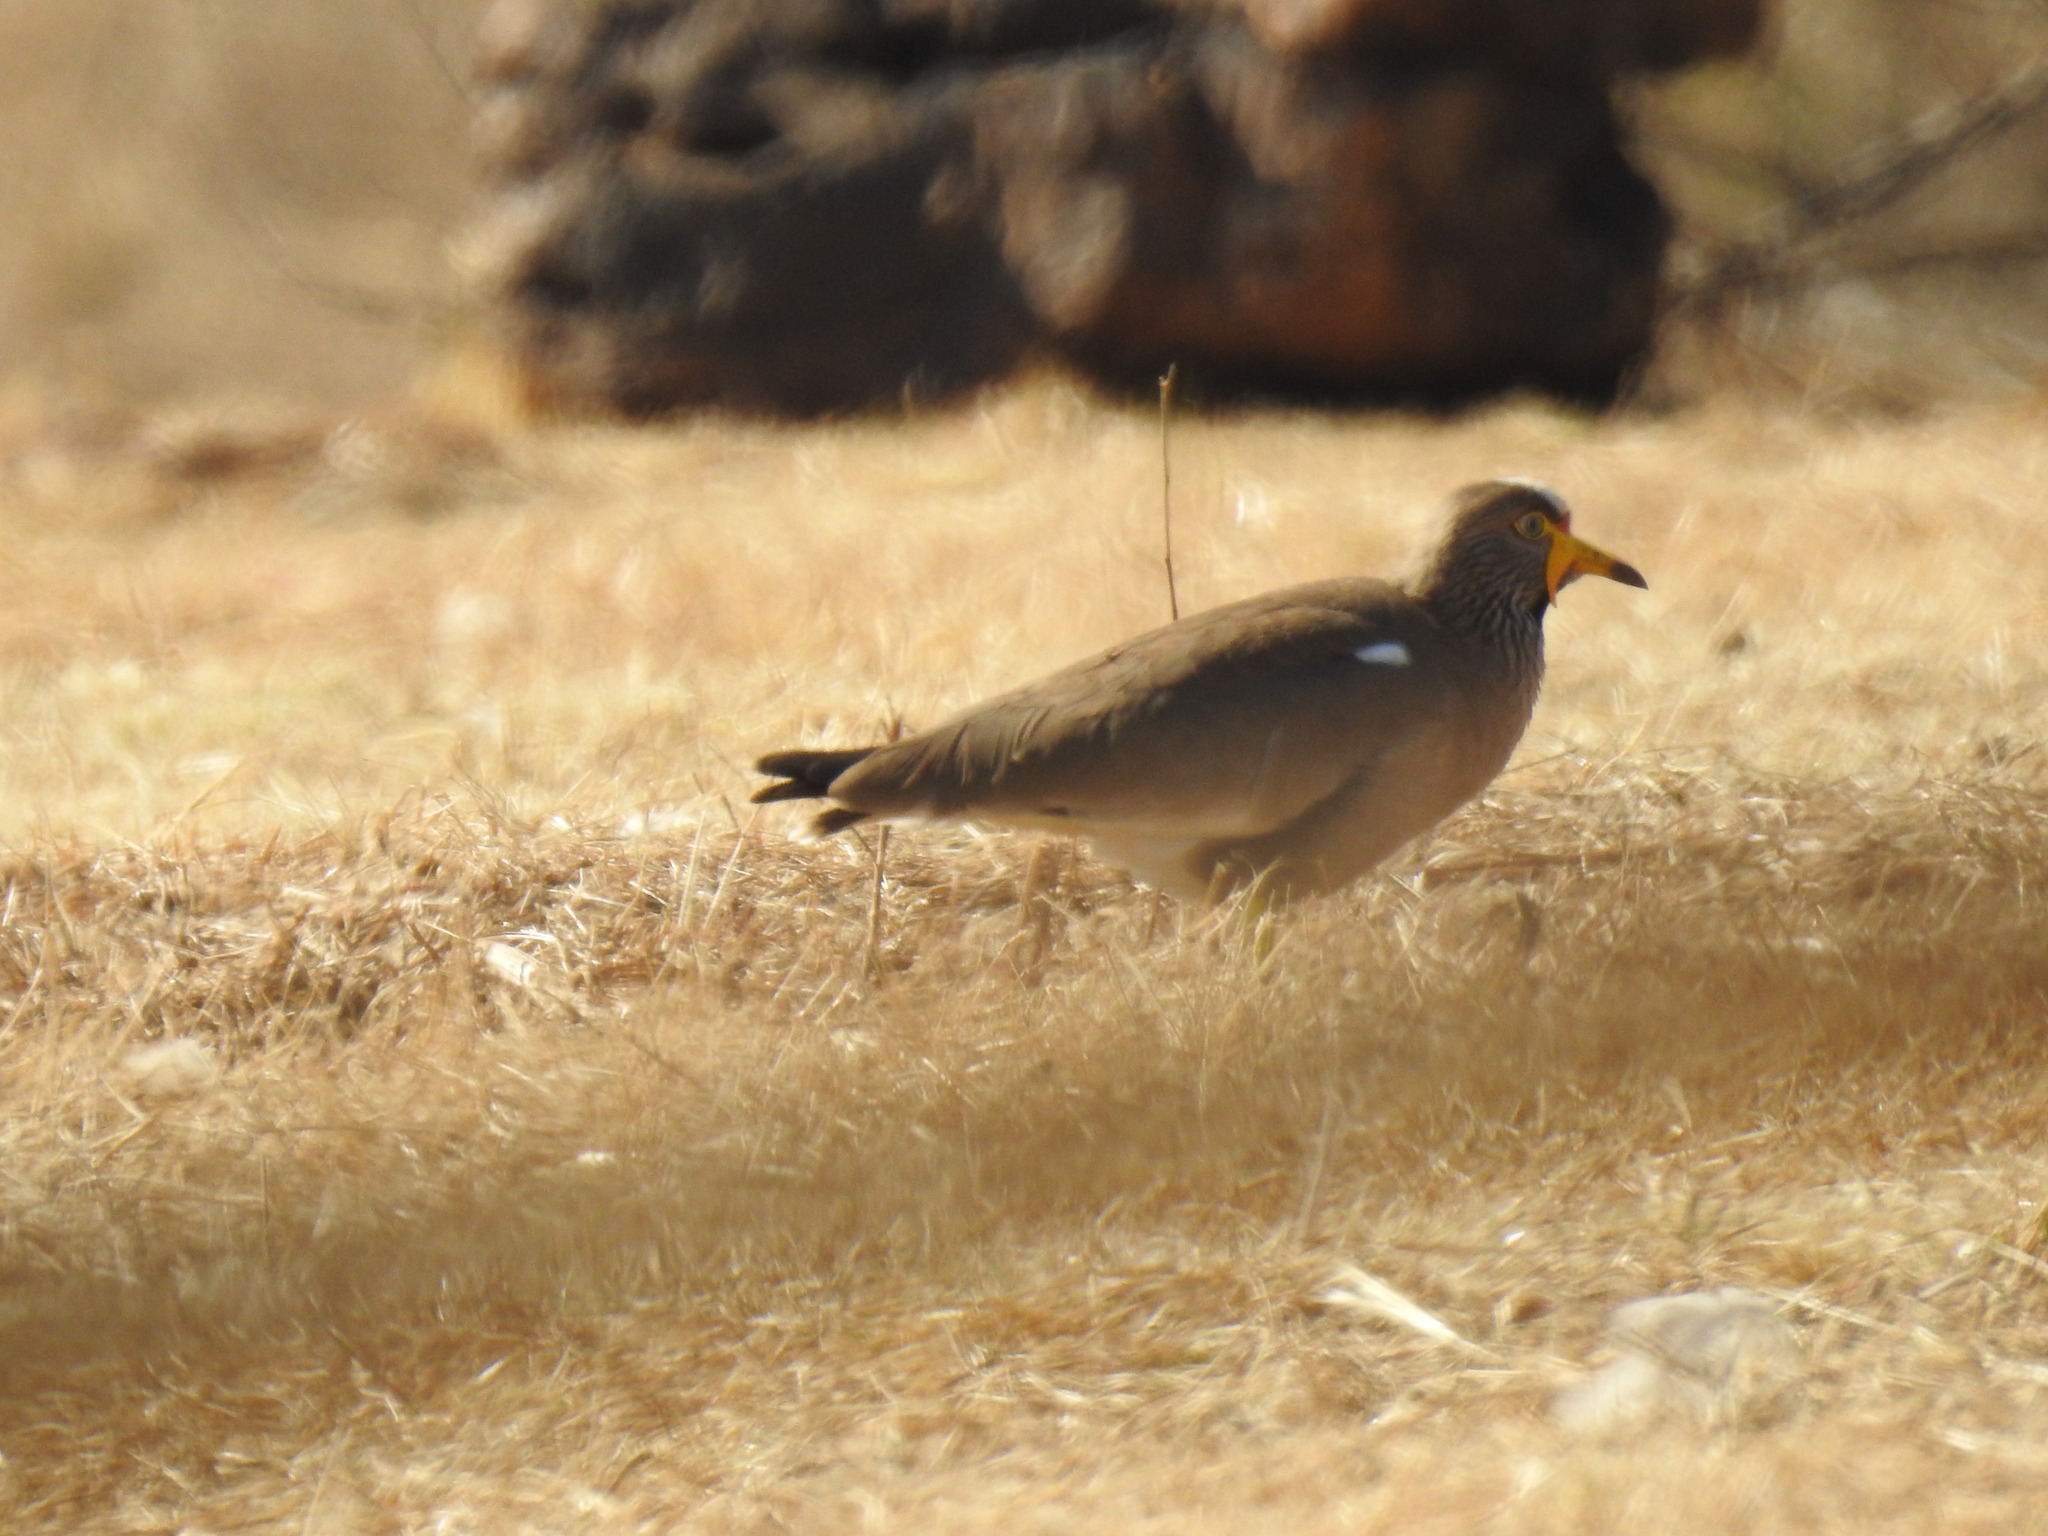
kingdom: Animalia
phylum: Chordata
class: Aves
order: Charadriiformes
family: Charadriidae
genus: Vanellus
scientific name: Vanellus senegallus
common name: African wattled lapwing
